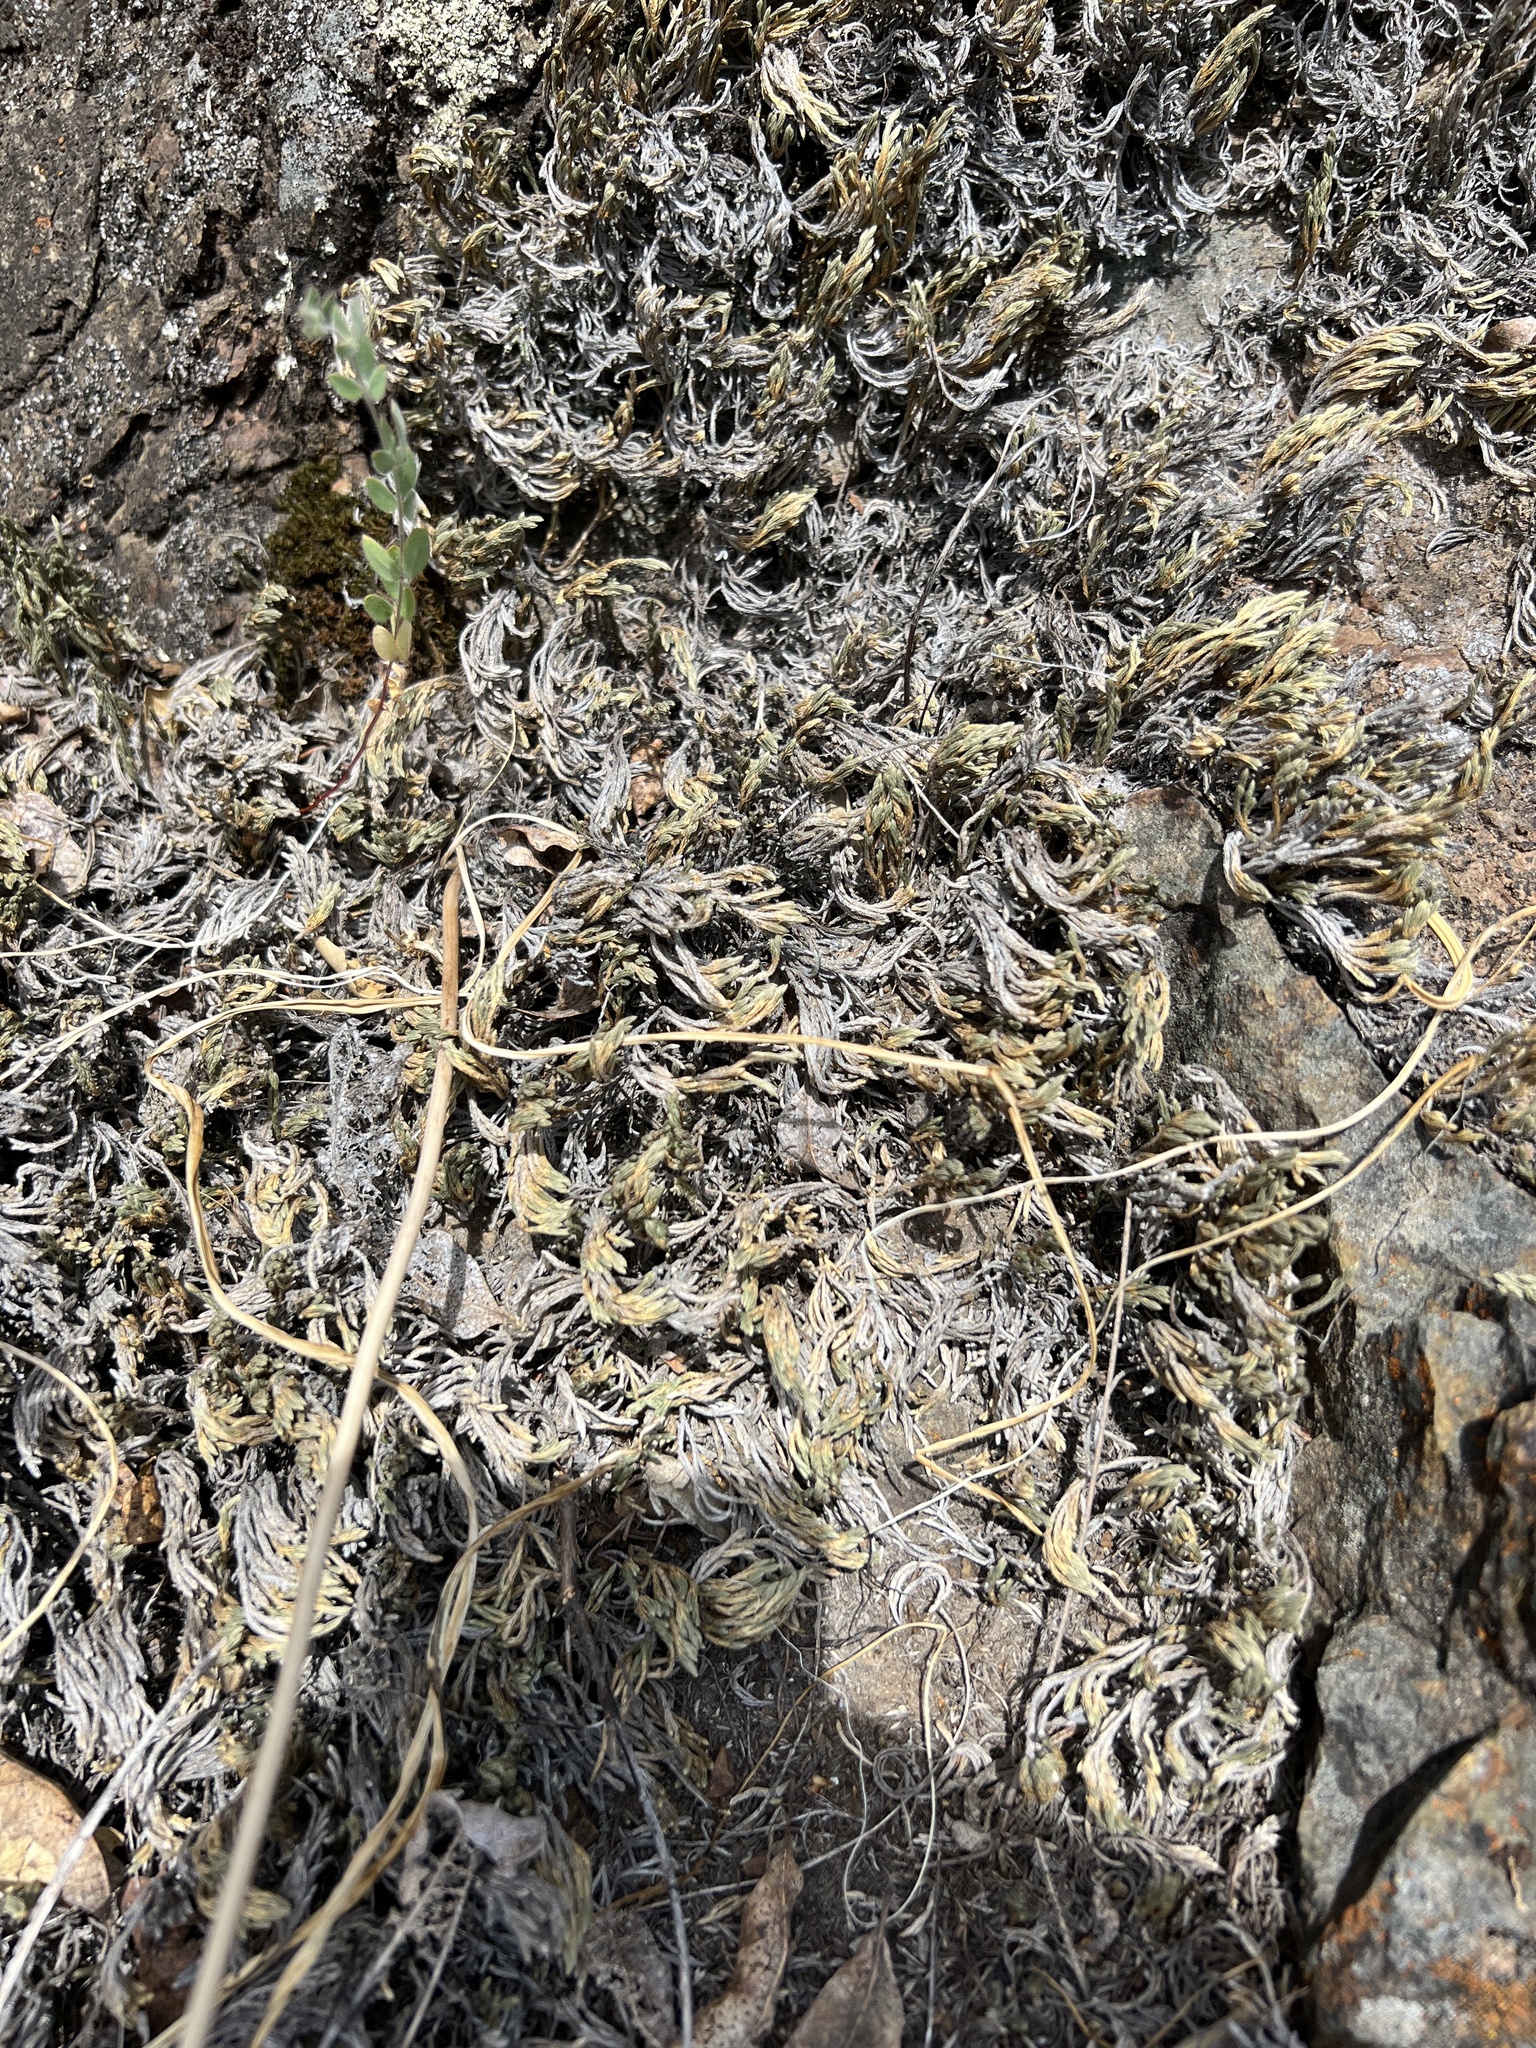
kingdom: Plantae
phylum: Tracheophyta
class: Lycopodiopsida
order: Selaginellales
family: Selaginellaceae
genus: Selaginella
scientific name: Selaginella bigelovii
